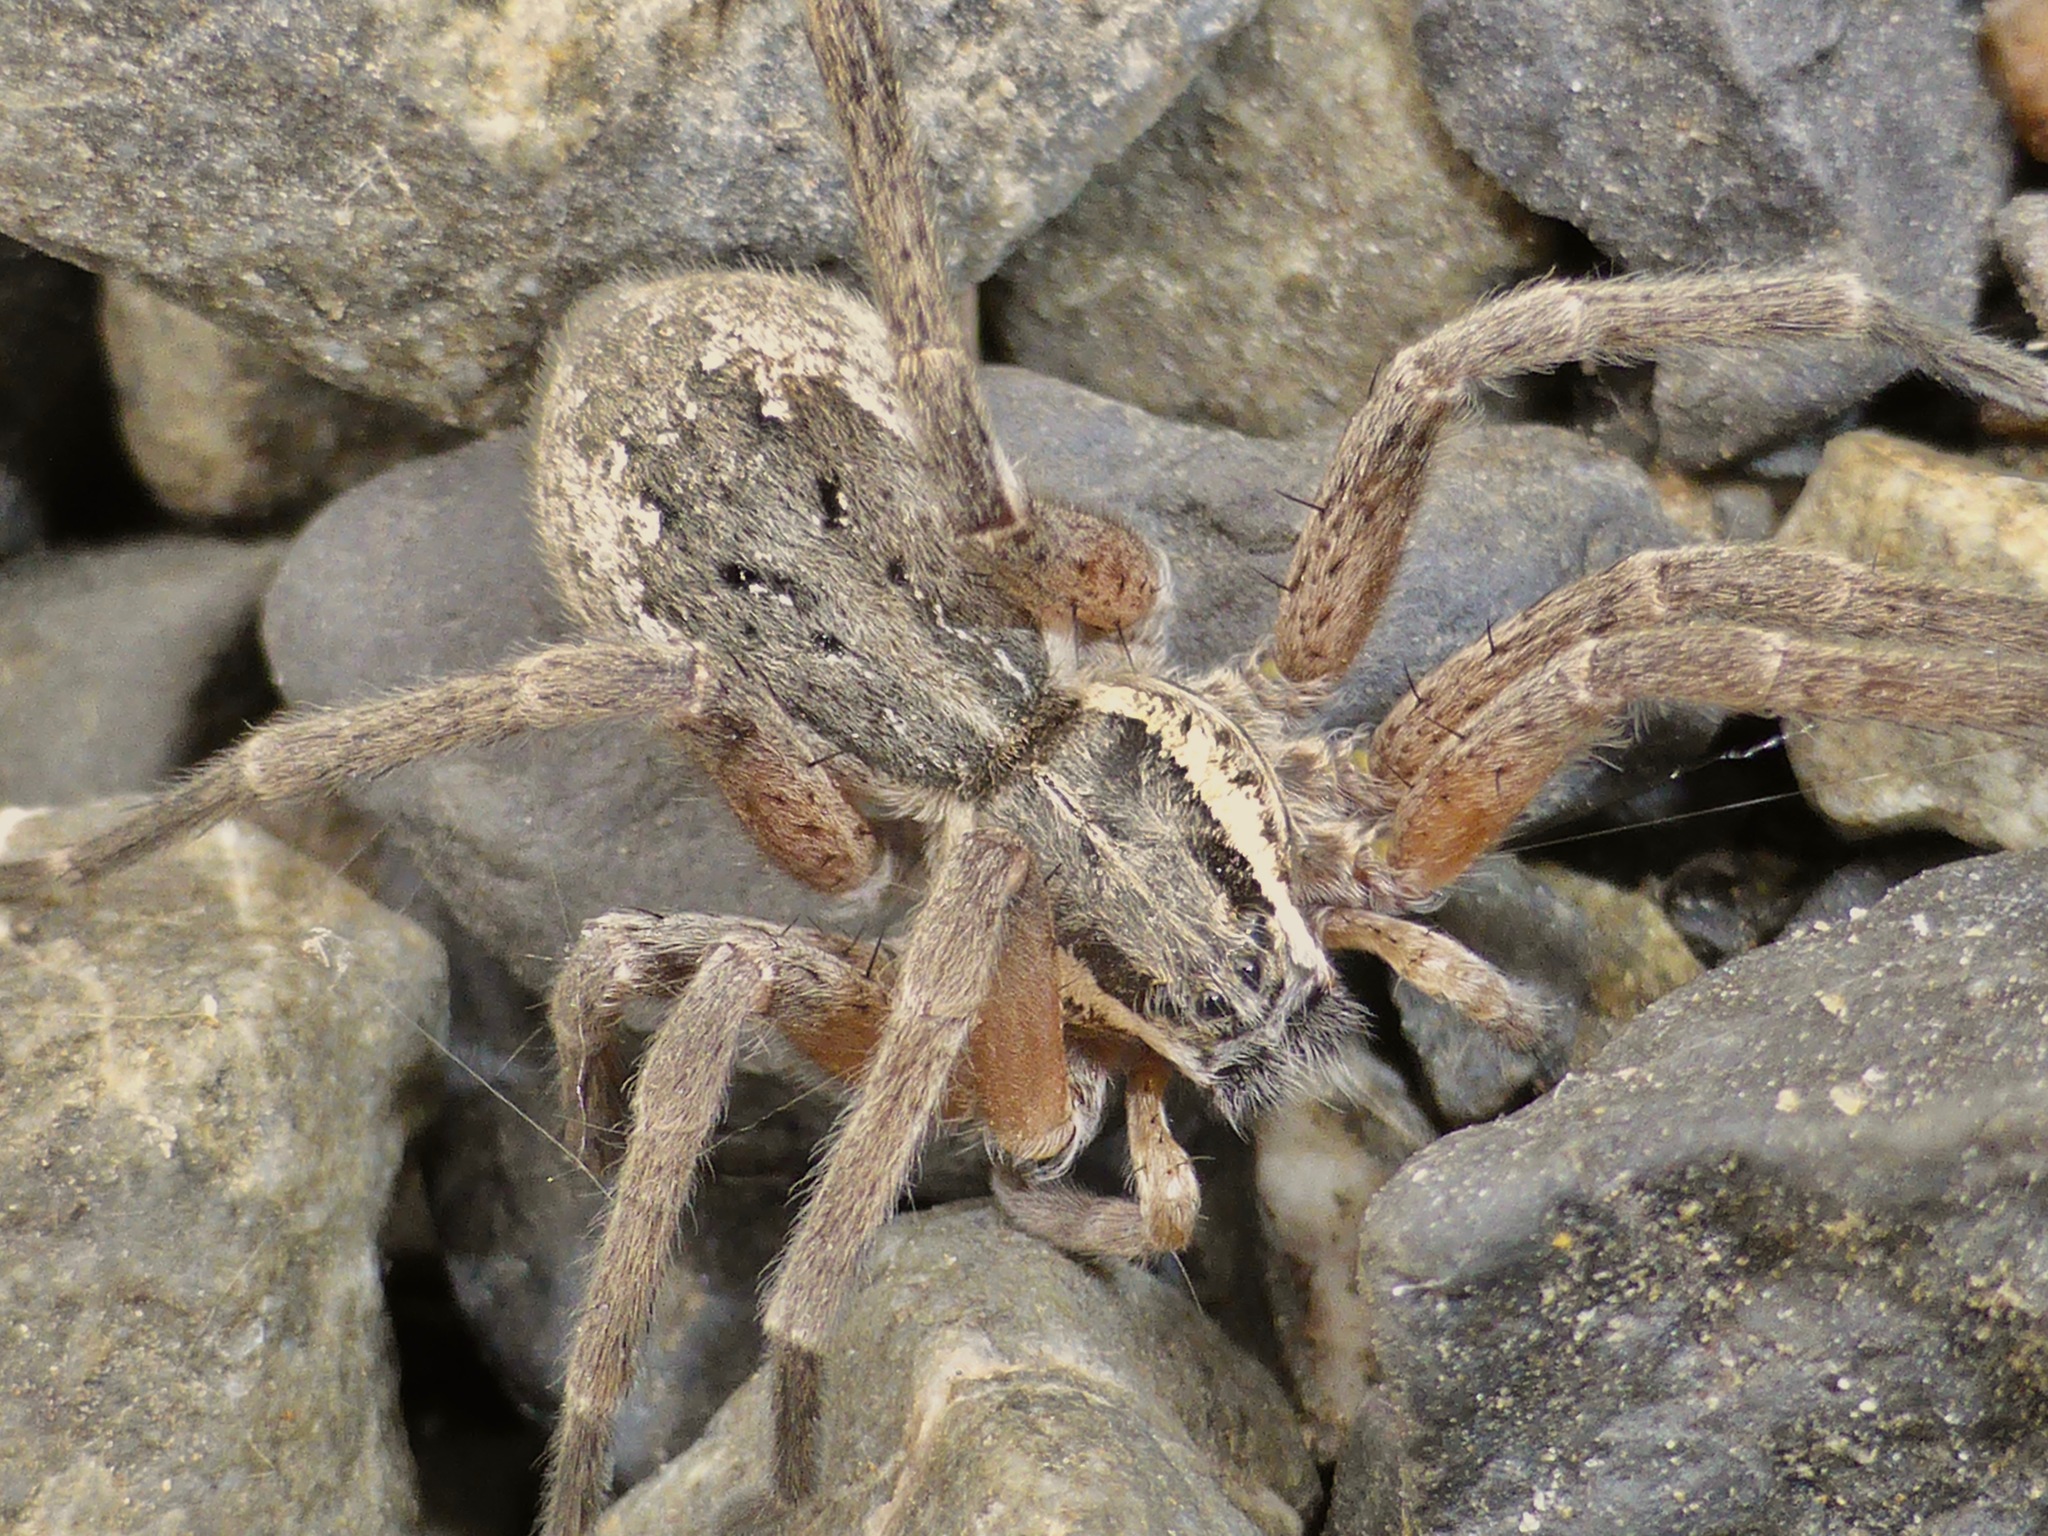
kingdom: Animalia
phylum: Arthropoda
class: Arachnida
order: Araneae
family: Pisauridae
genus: Dolomedes
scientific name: Dolomedes aquaticus
